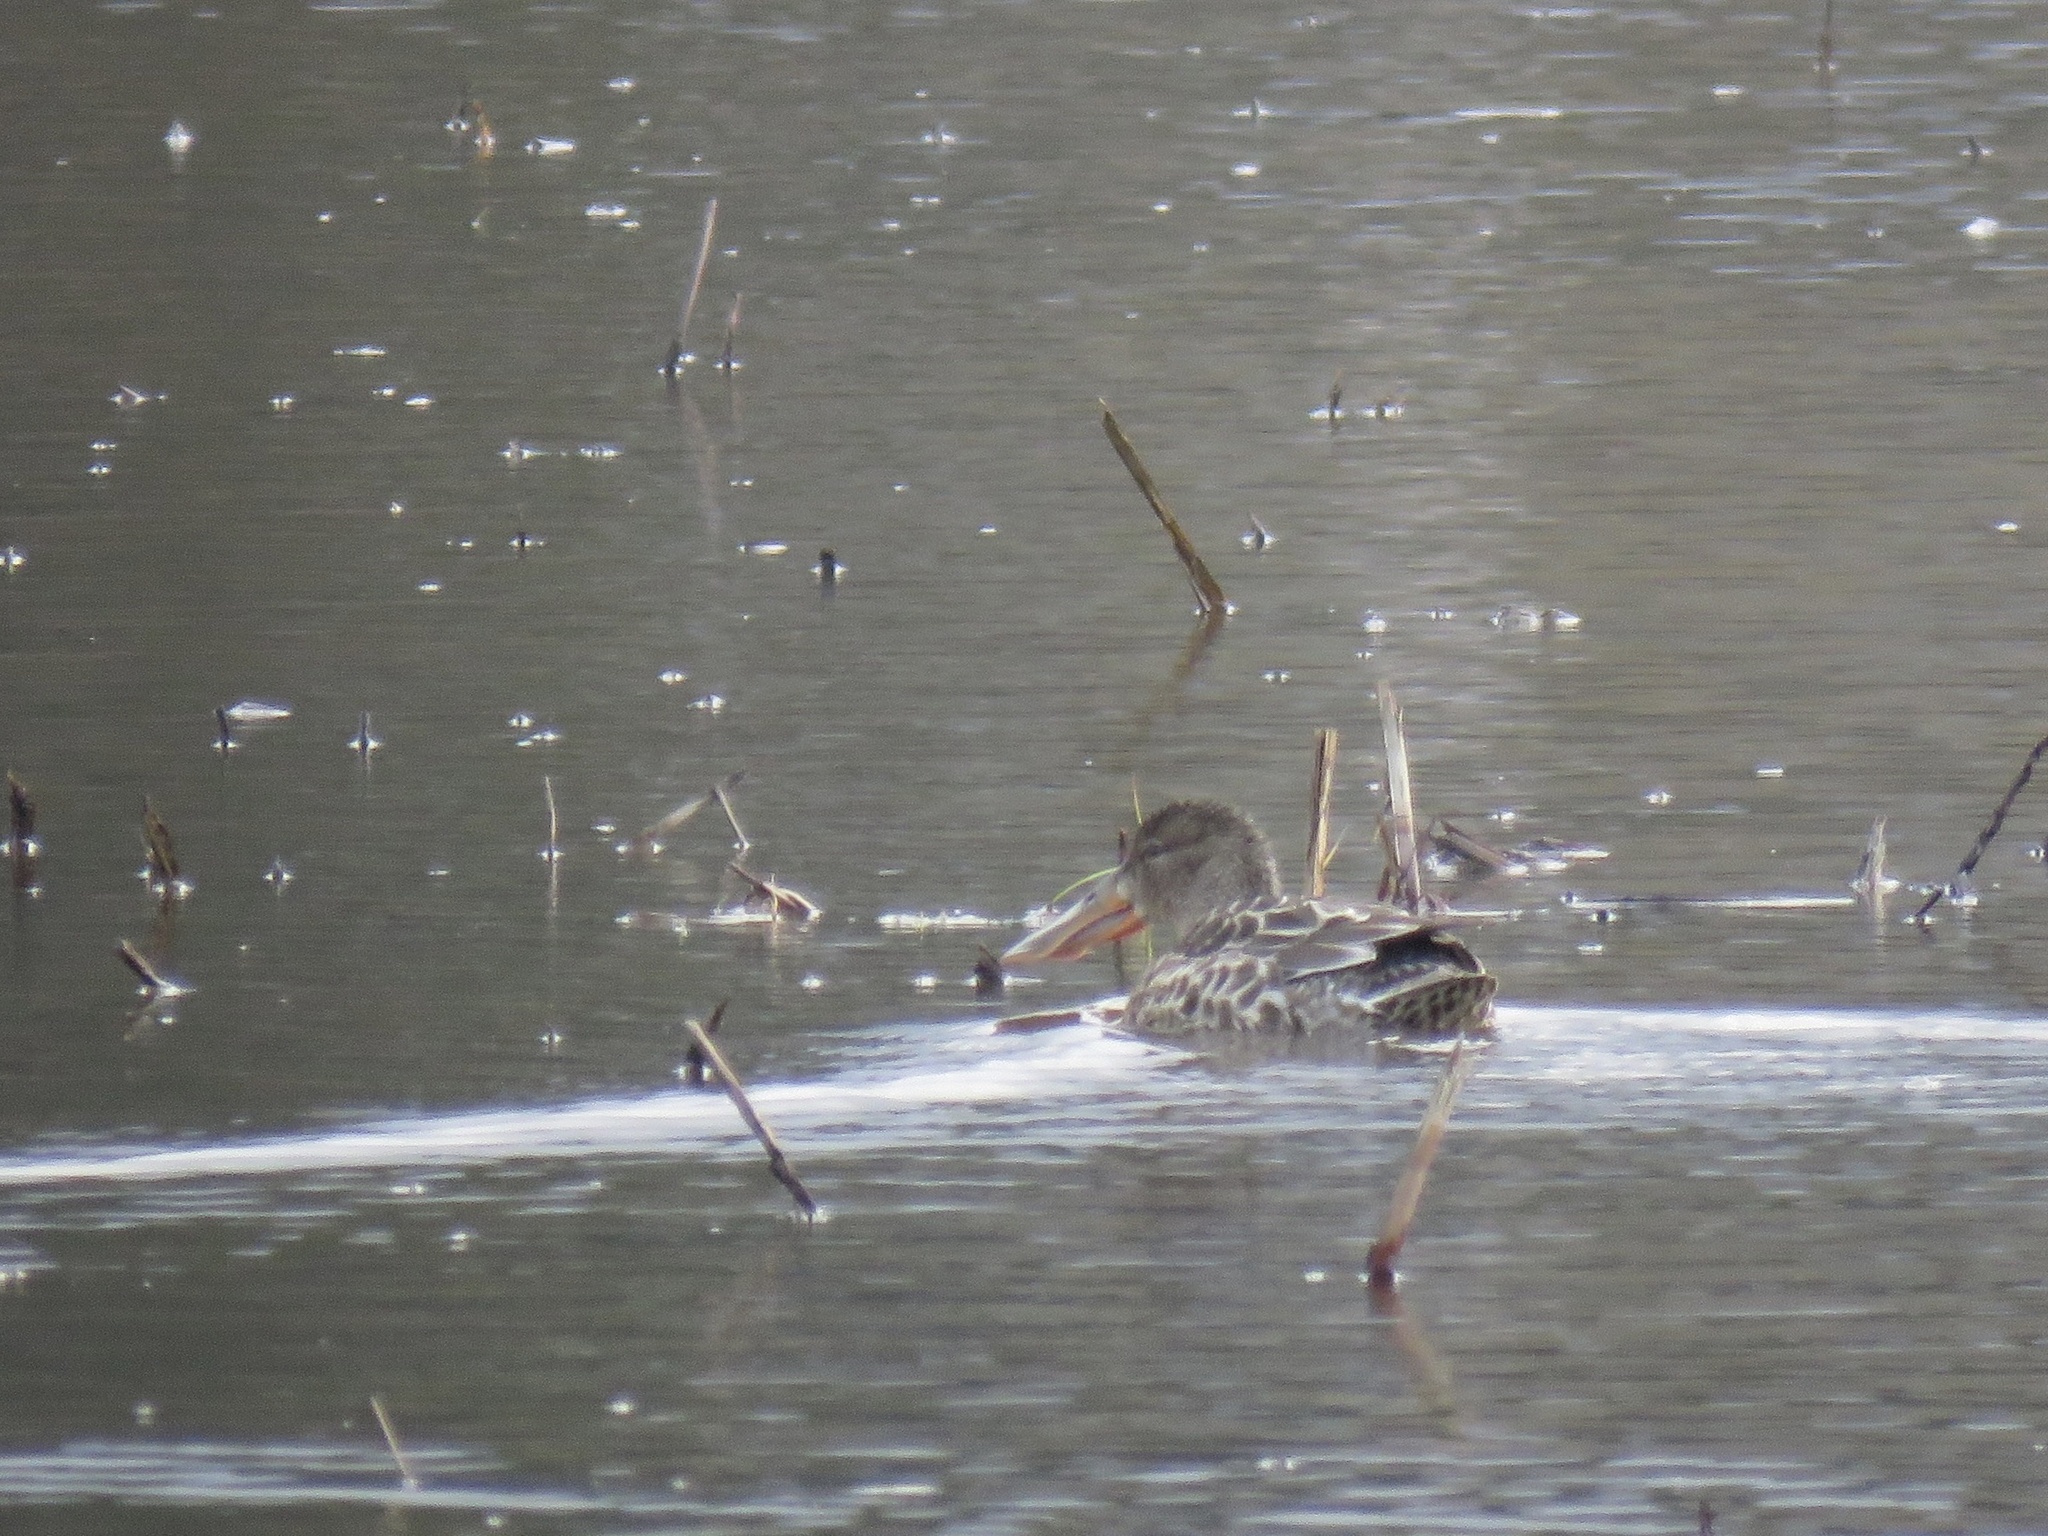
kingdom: Animalia
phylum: Chordata
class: Aves
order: Anseriformes
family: Anatidae
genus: Spatula
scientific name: Spatula clypeata
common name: Northern shoveler
